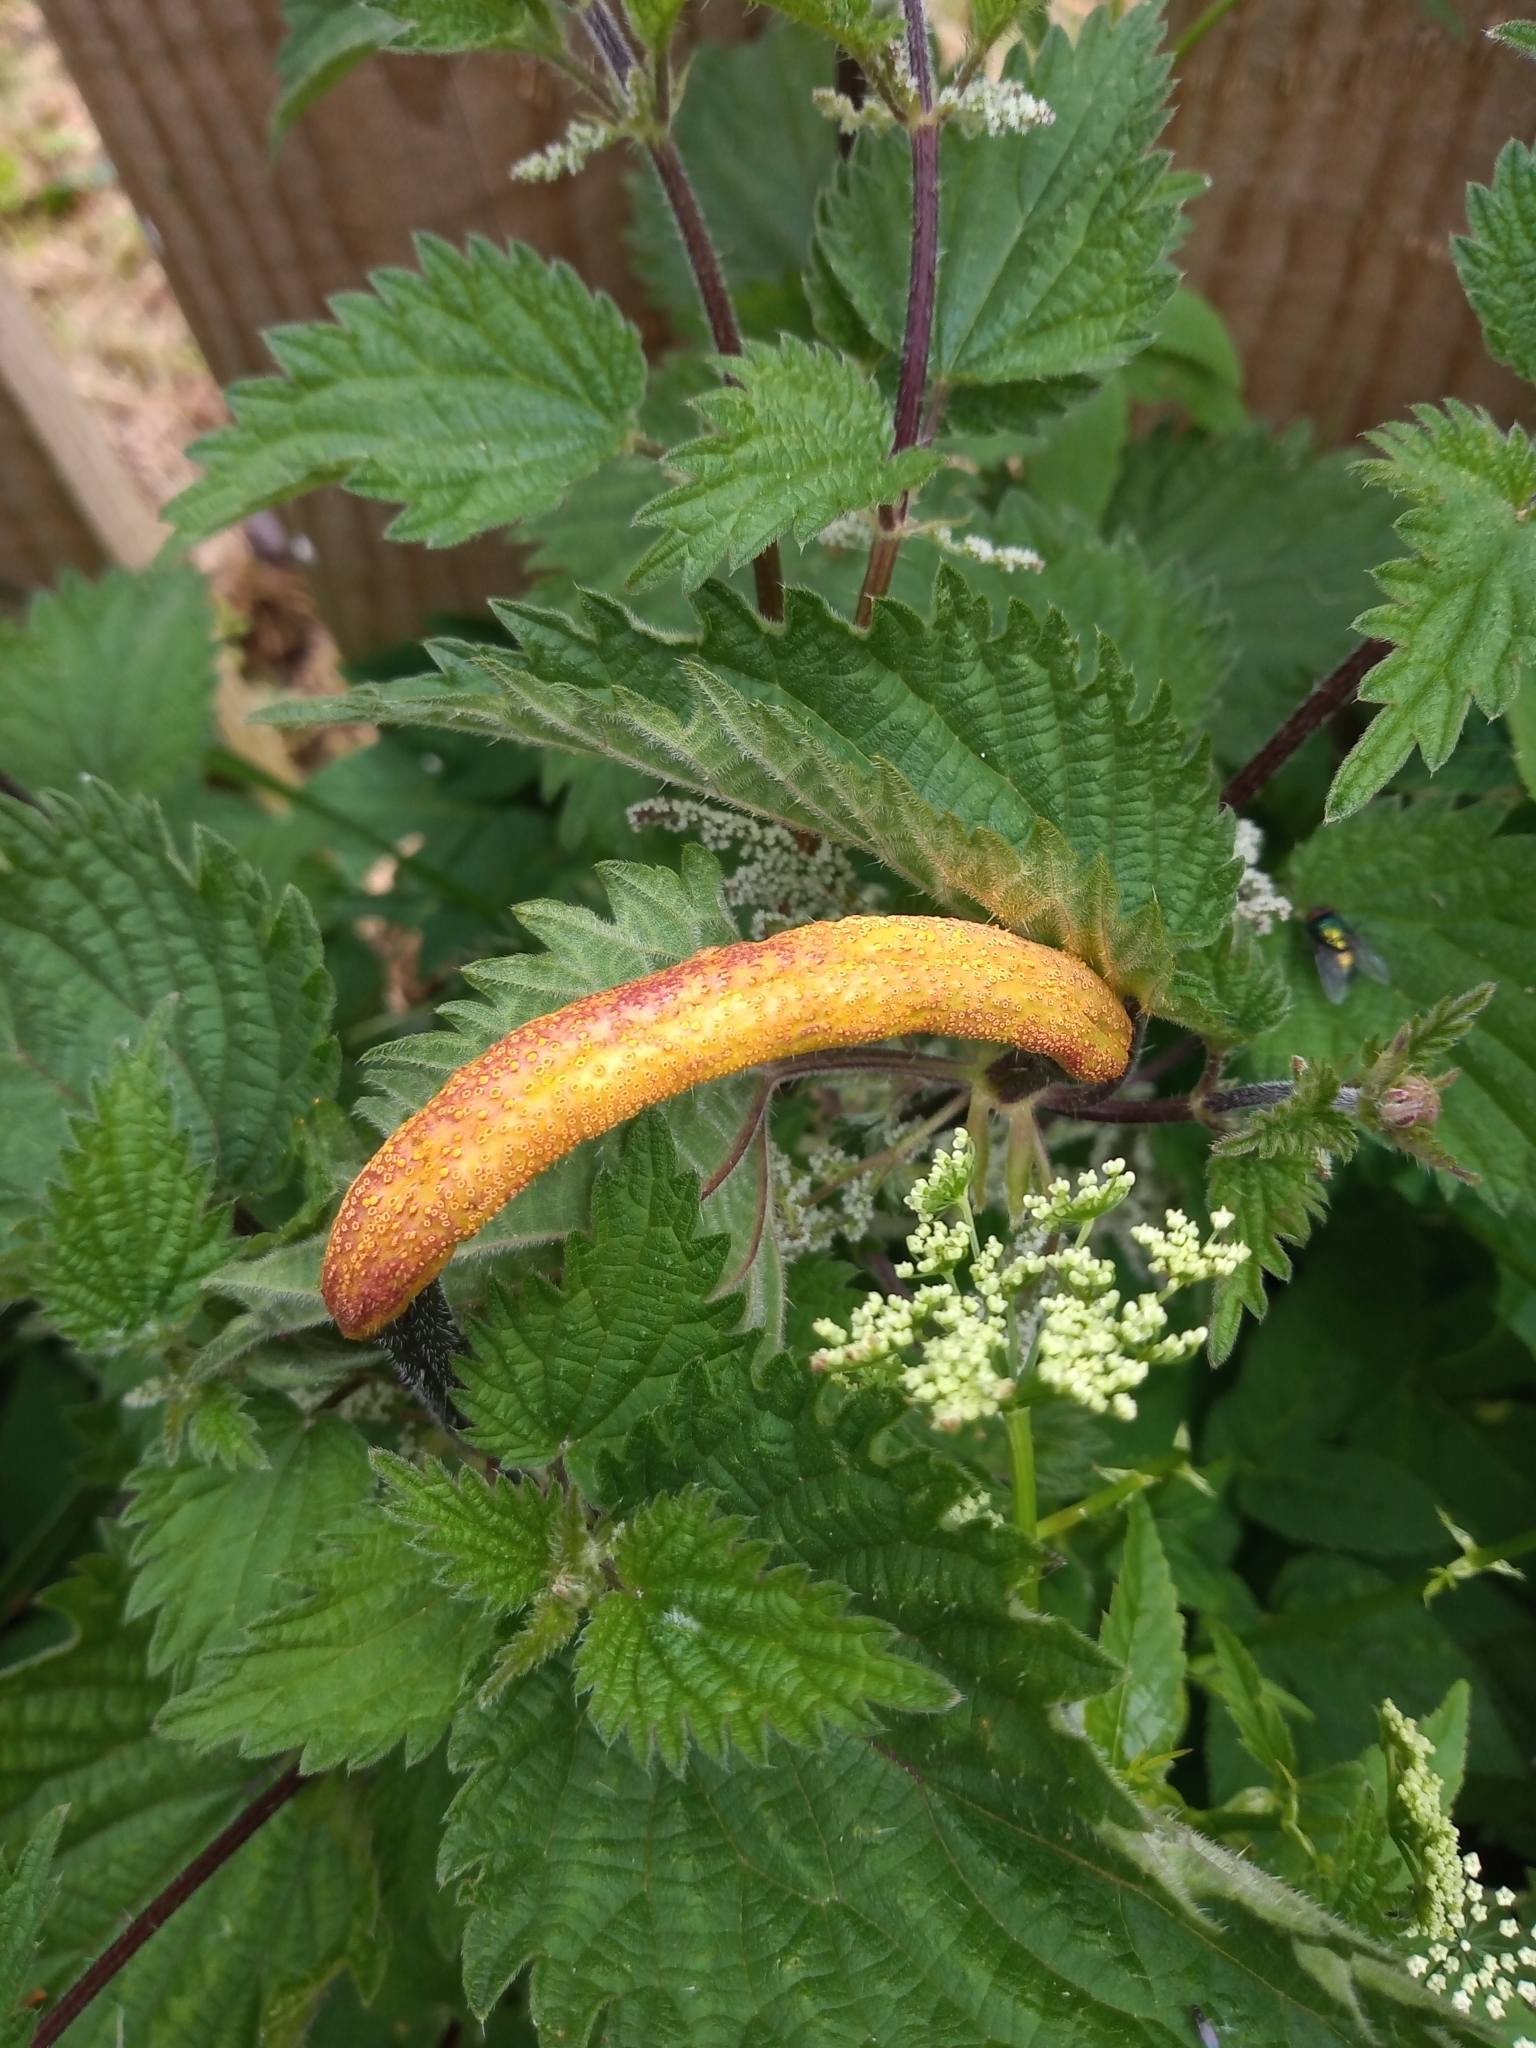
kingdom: Fungi
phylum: Basidiomycota
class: Pucciniomycetes
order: Pucciniales
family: Pucciniaceae
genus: Puccinia
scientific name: Puccinia urticata
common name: Nettle clustercup rust fungus
